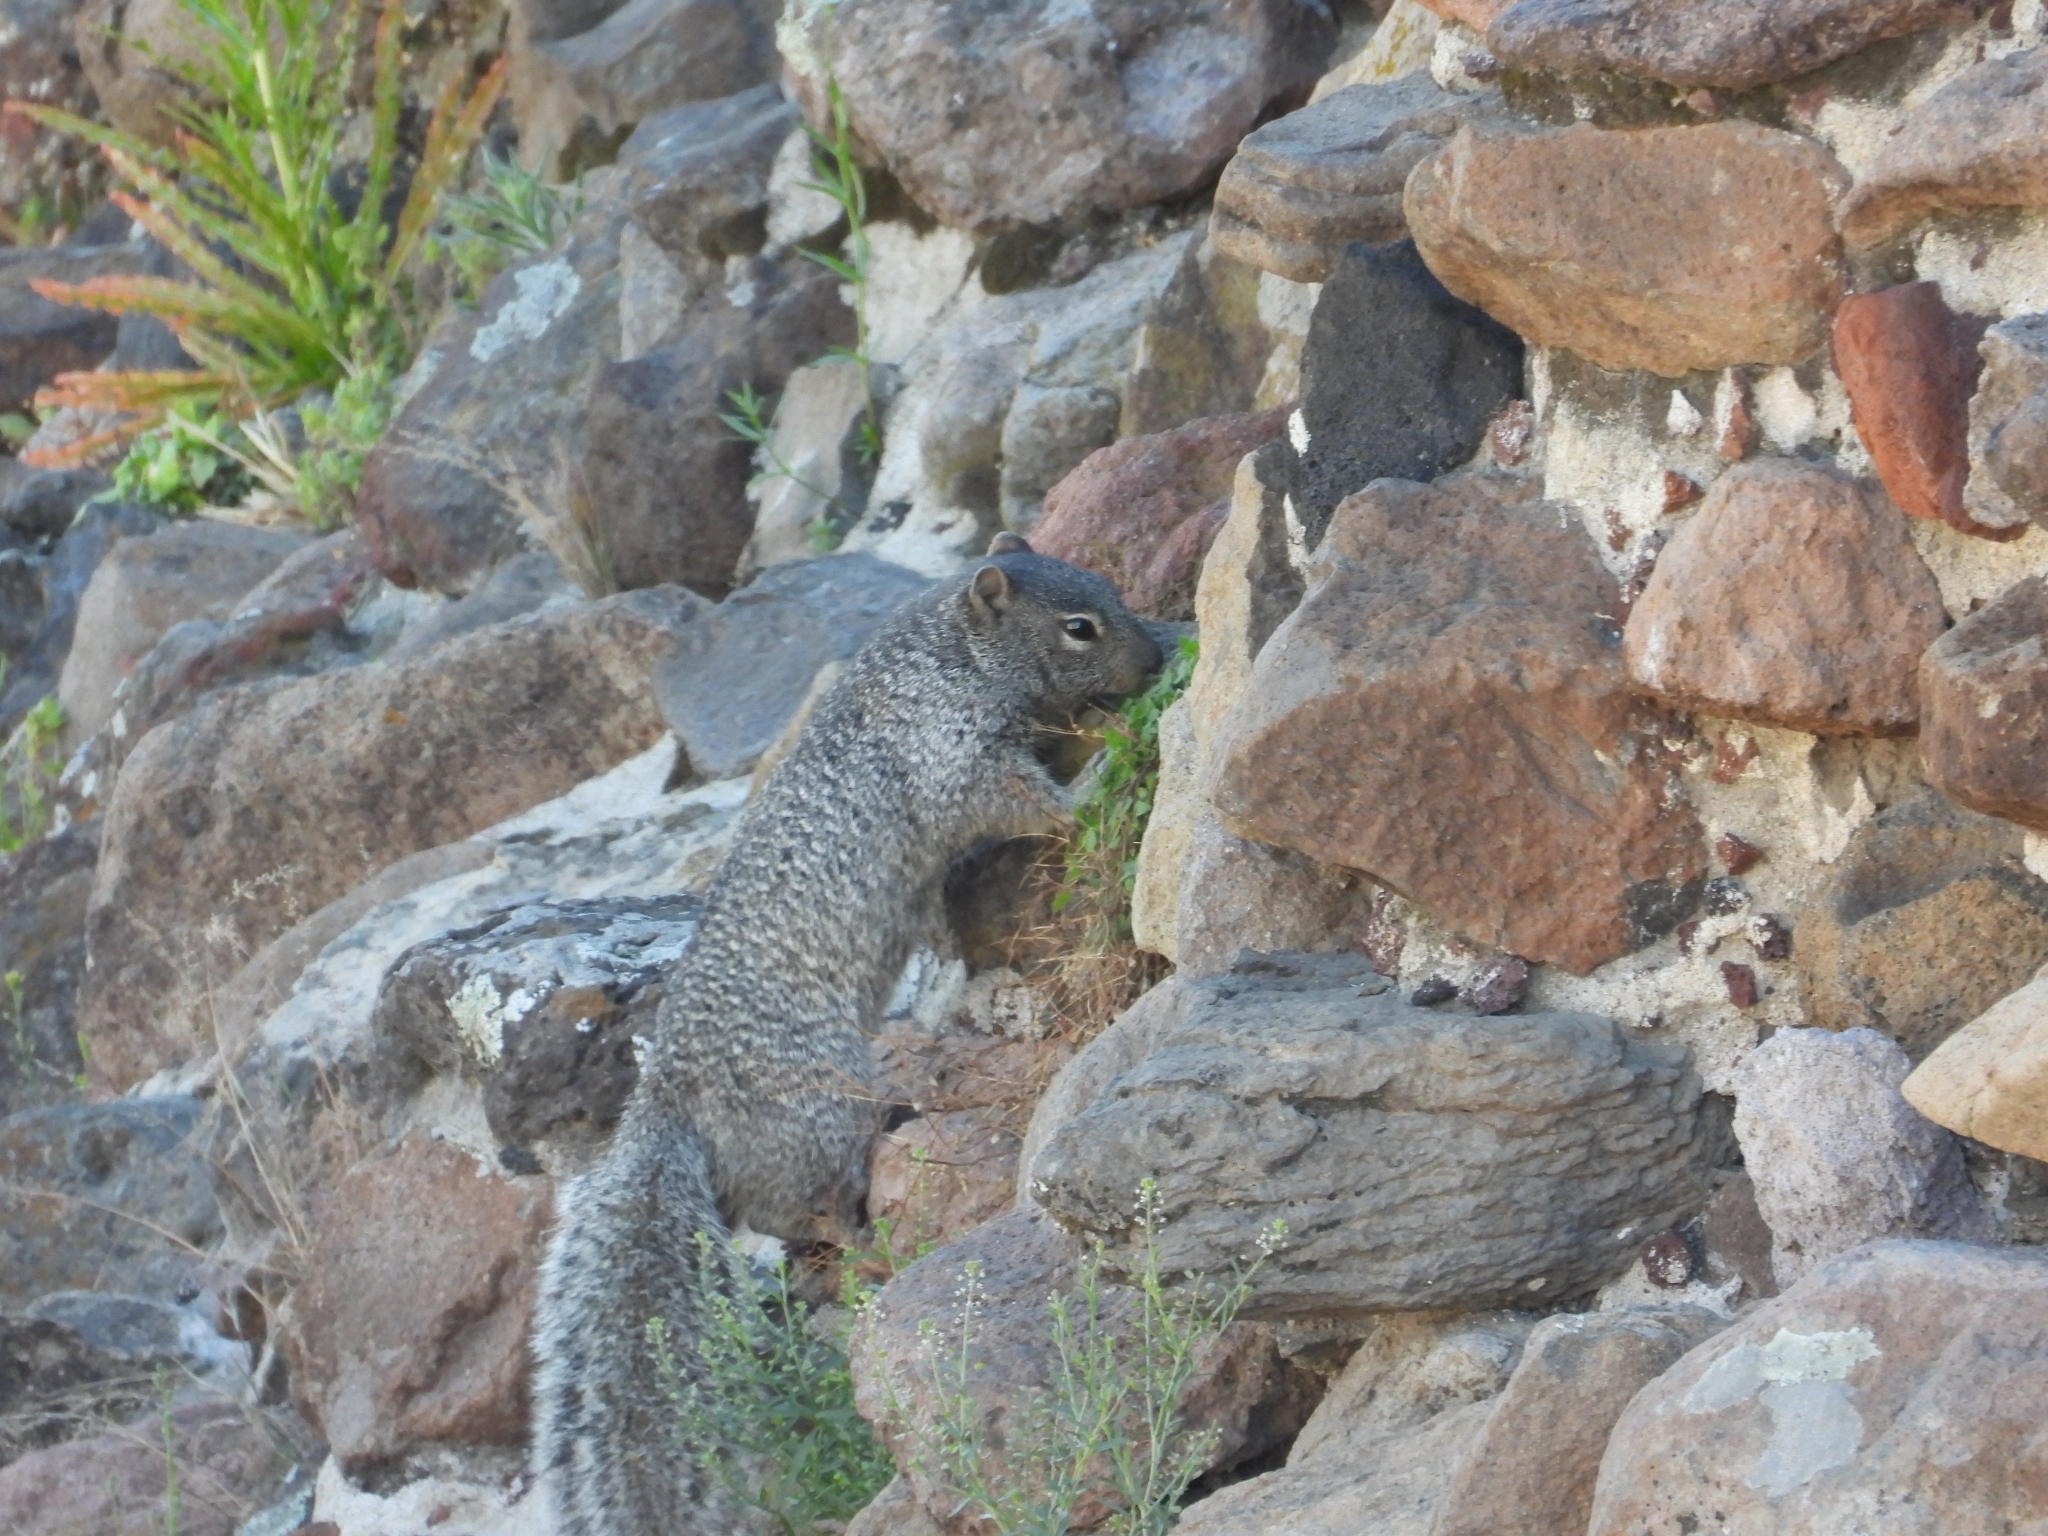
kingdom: Animalia
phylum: Chordata
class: Mammalia
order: Rodentia
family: Sciuridae
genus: Otospermophilus
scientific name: Otospermophilus variegatus
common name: Rock squirrel
